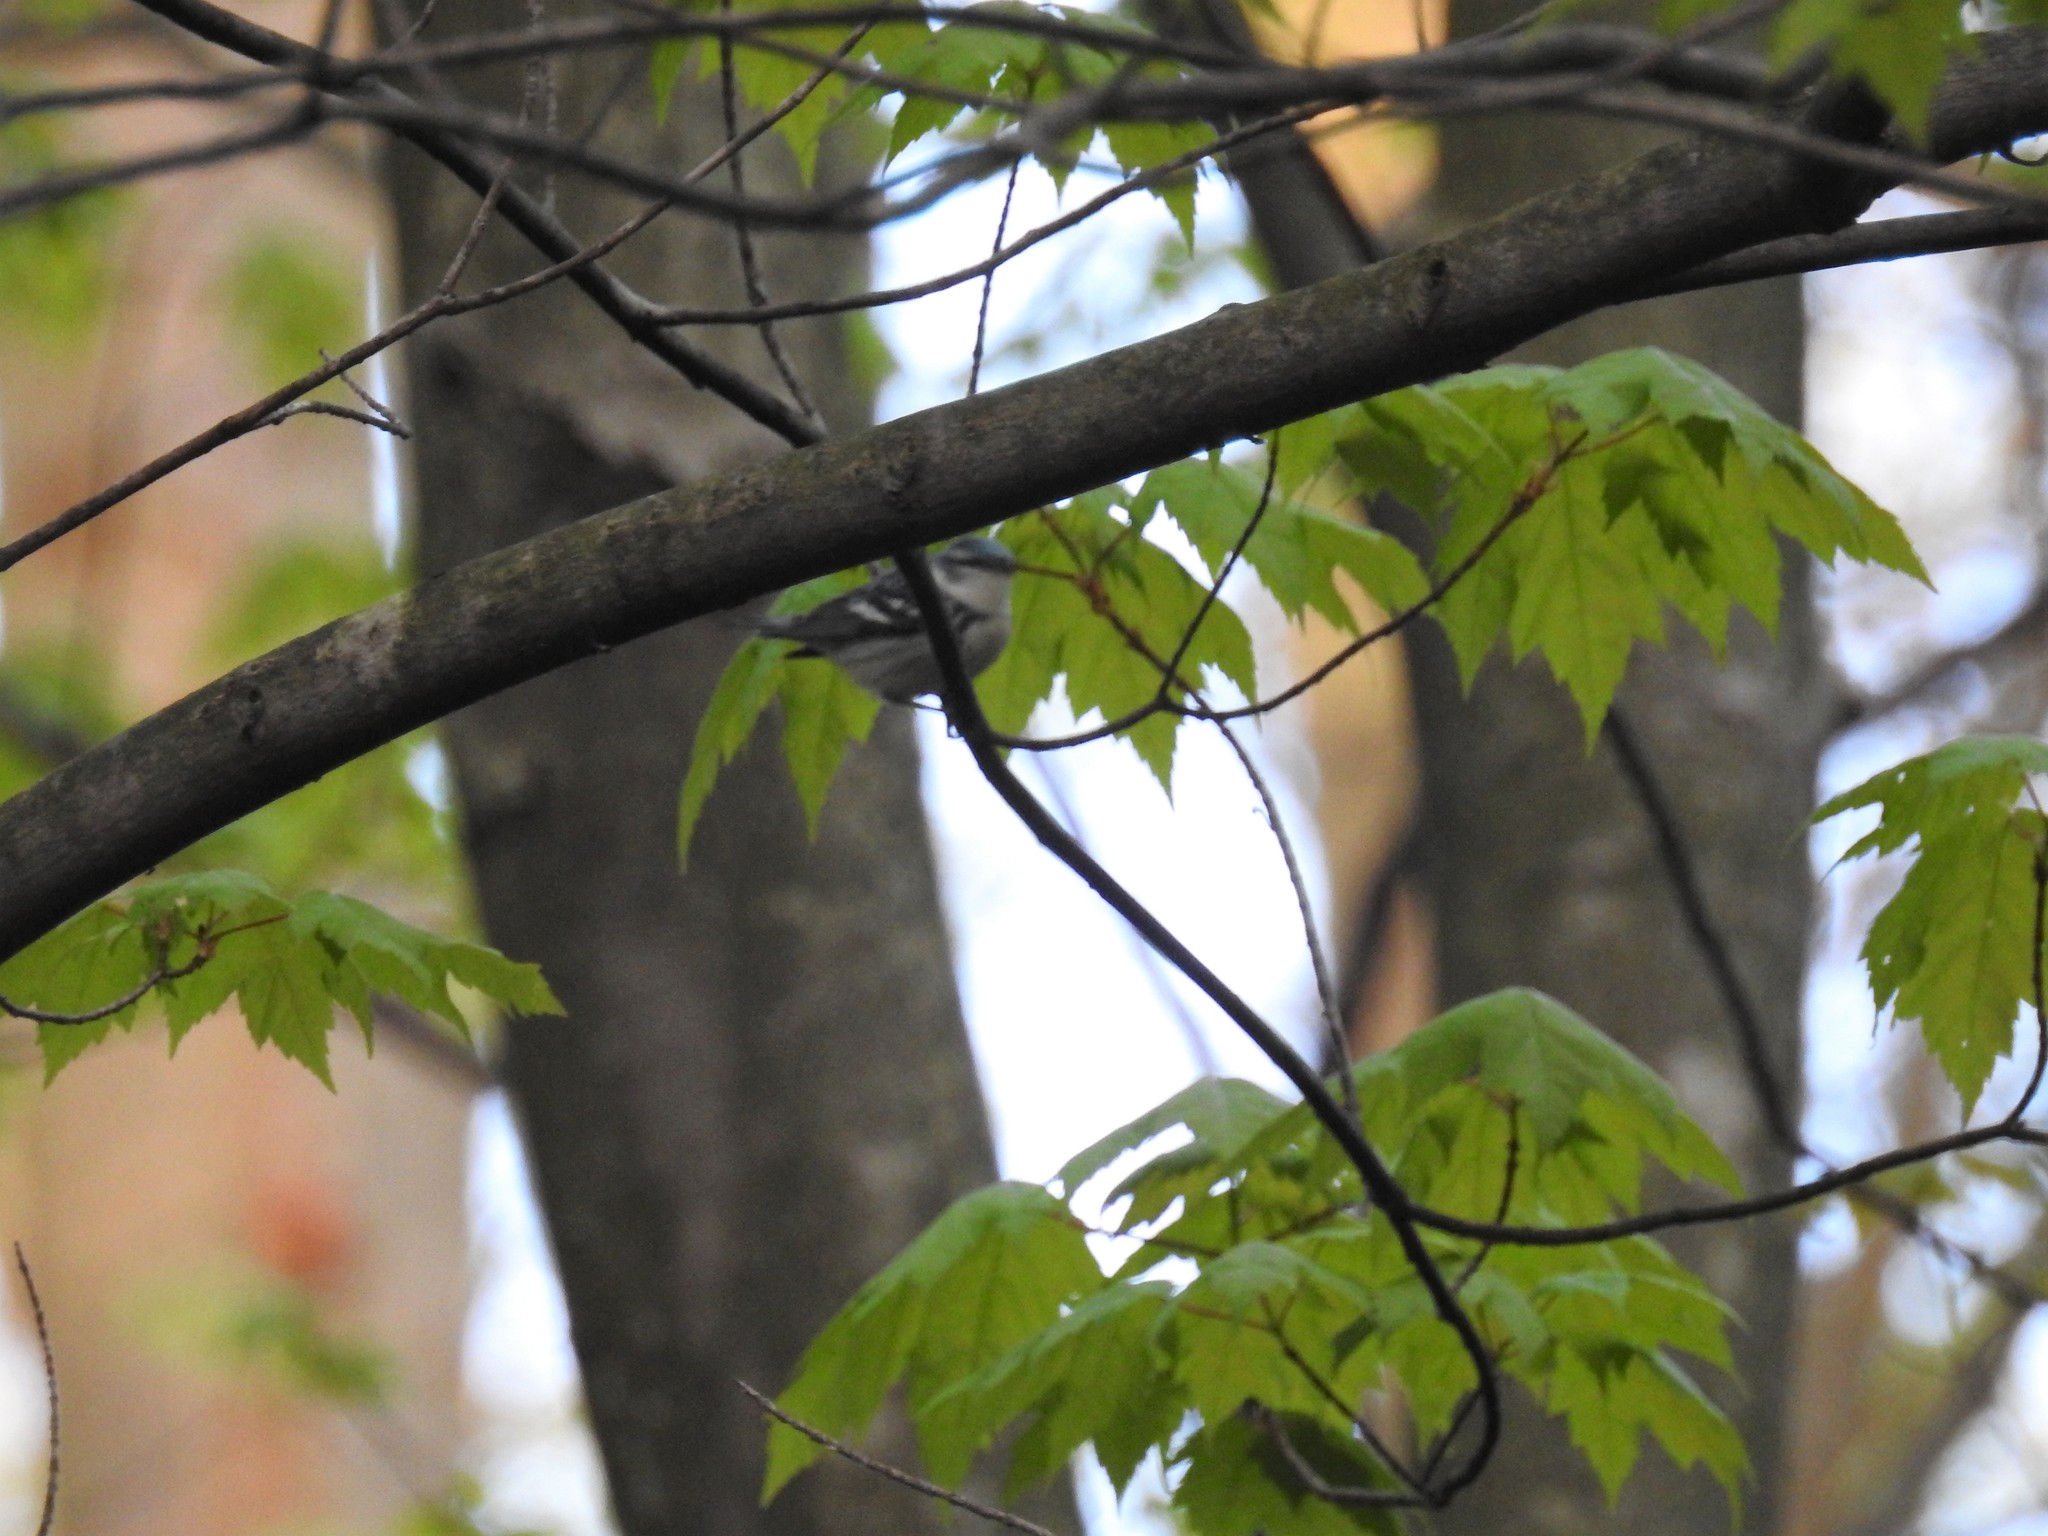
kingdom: Animalia
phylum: Chordata
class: Aves
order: Passeriformes
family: Parulidae
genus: Setophaga
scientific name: Setophaga cerulea
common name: Cerulean warbler
